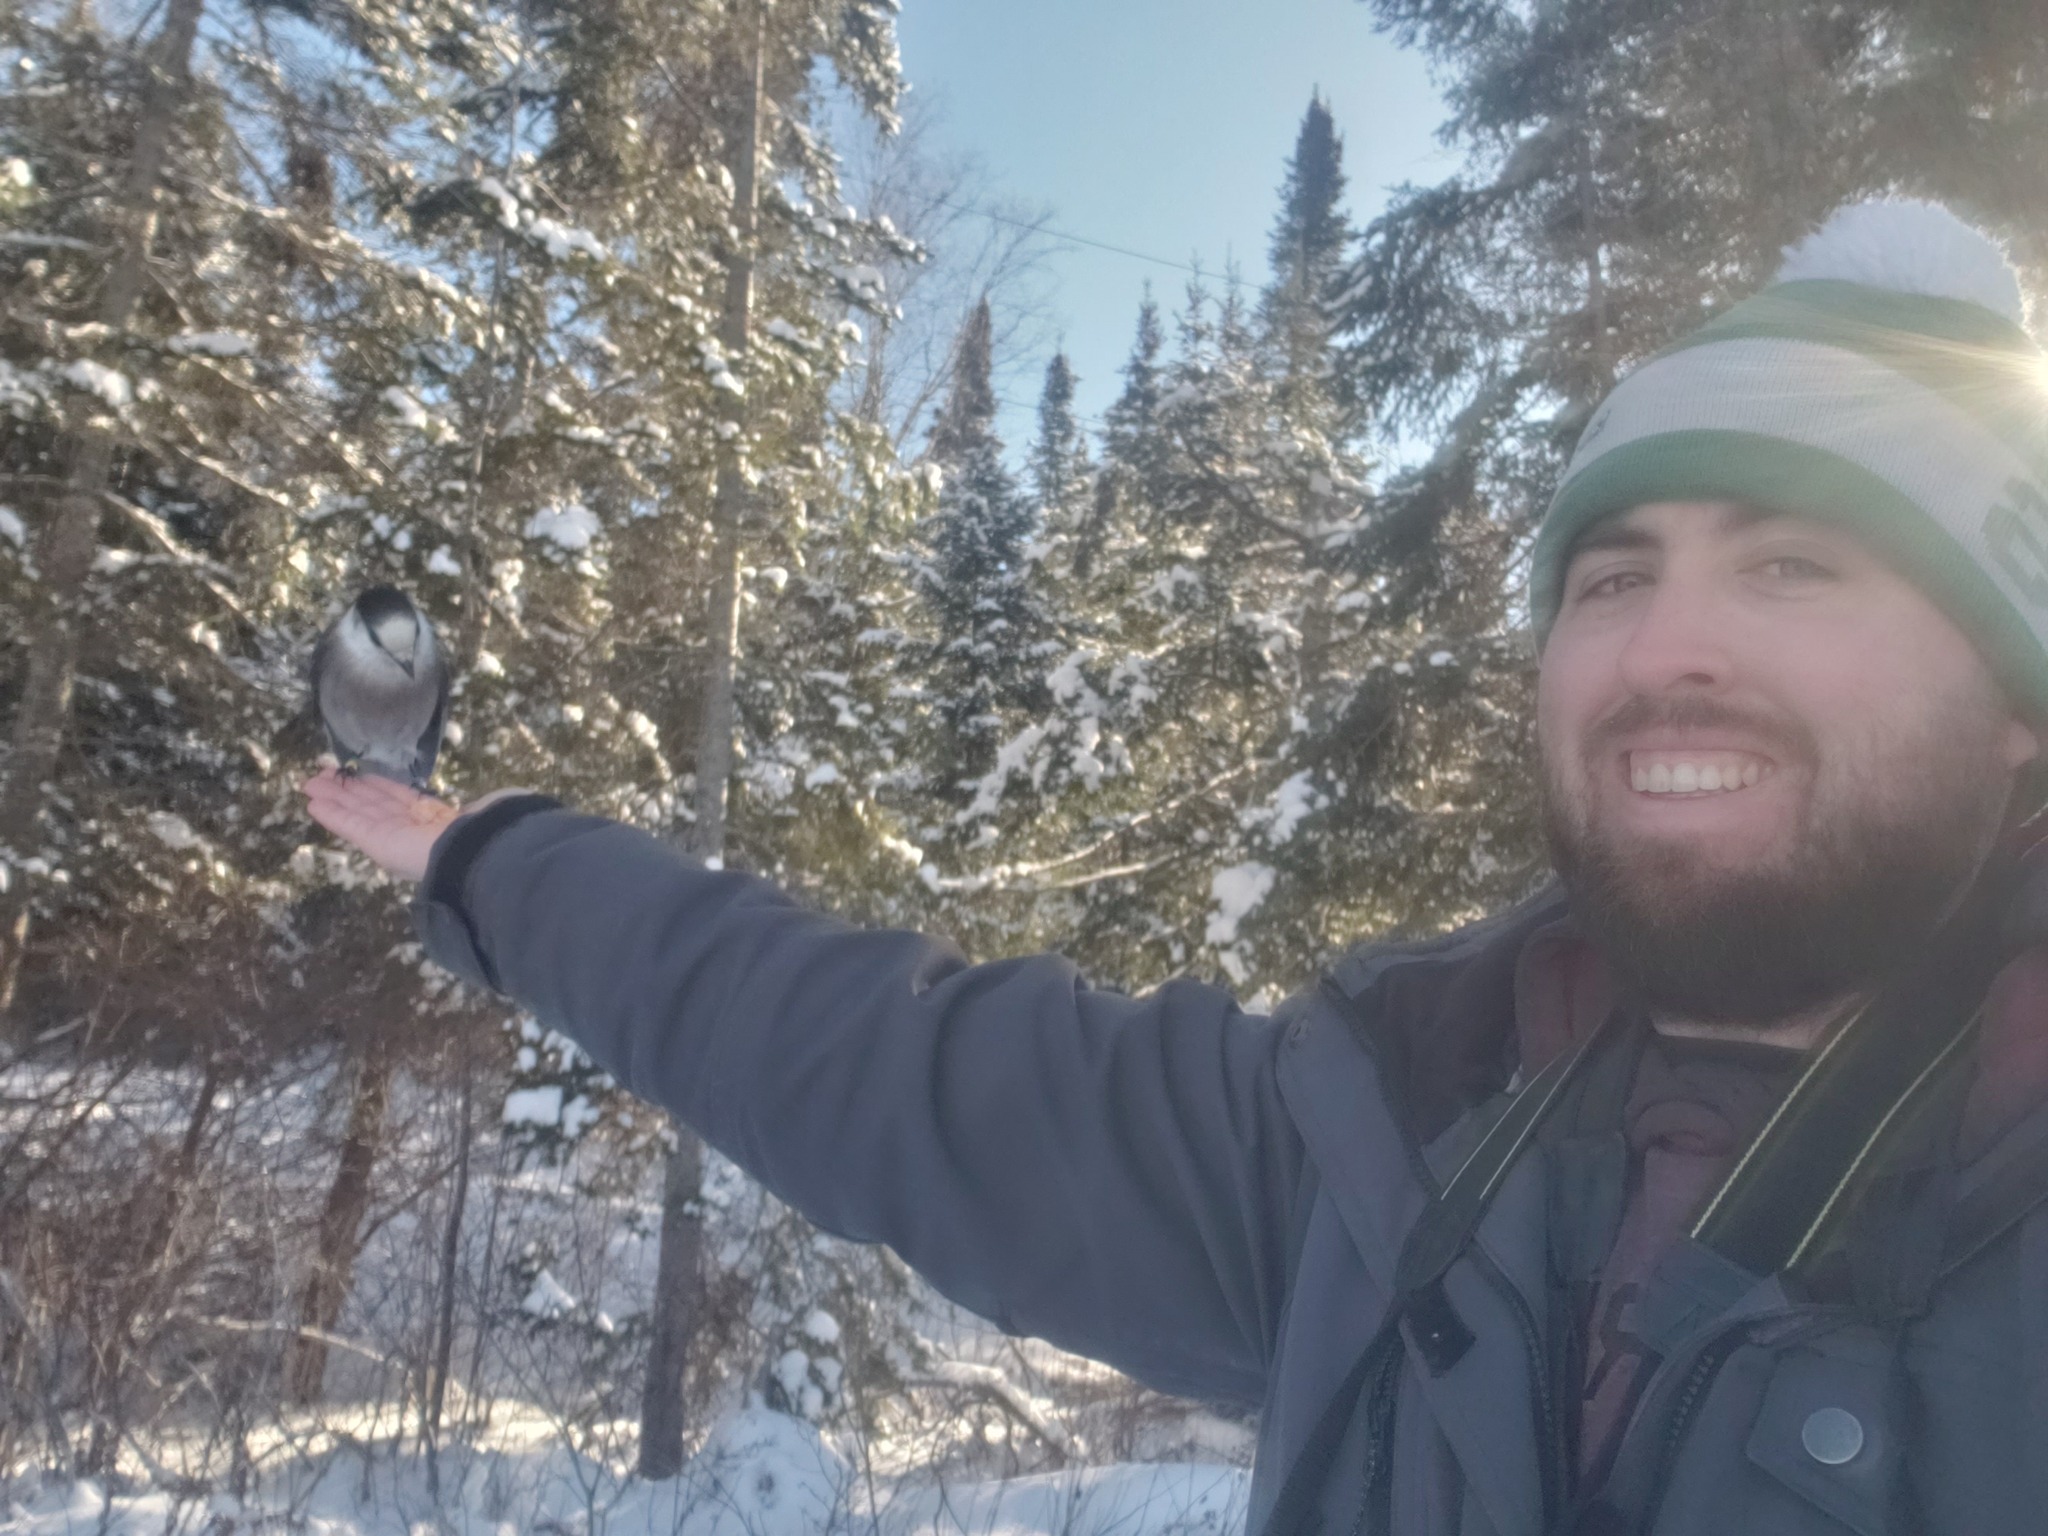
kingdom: Animalia
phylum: Chordata
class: Aves
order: Passeriformes
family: Corvidae
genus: Perisoreus
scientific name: Perisoreus canadensis
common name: Gray jay
